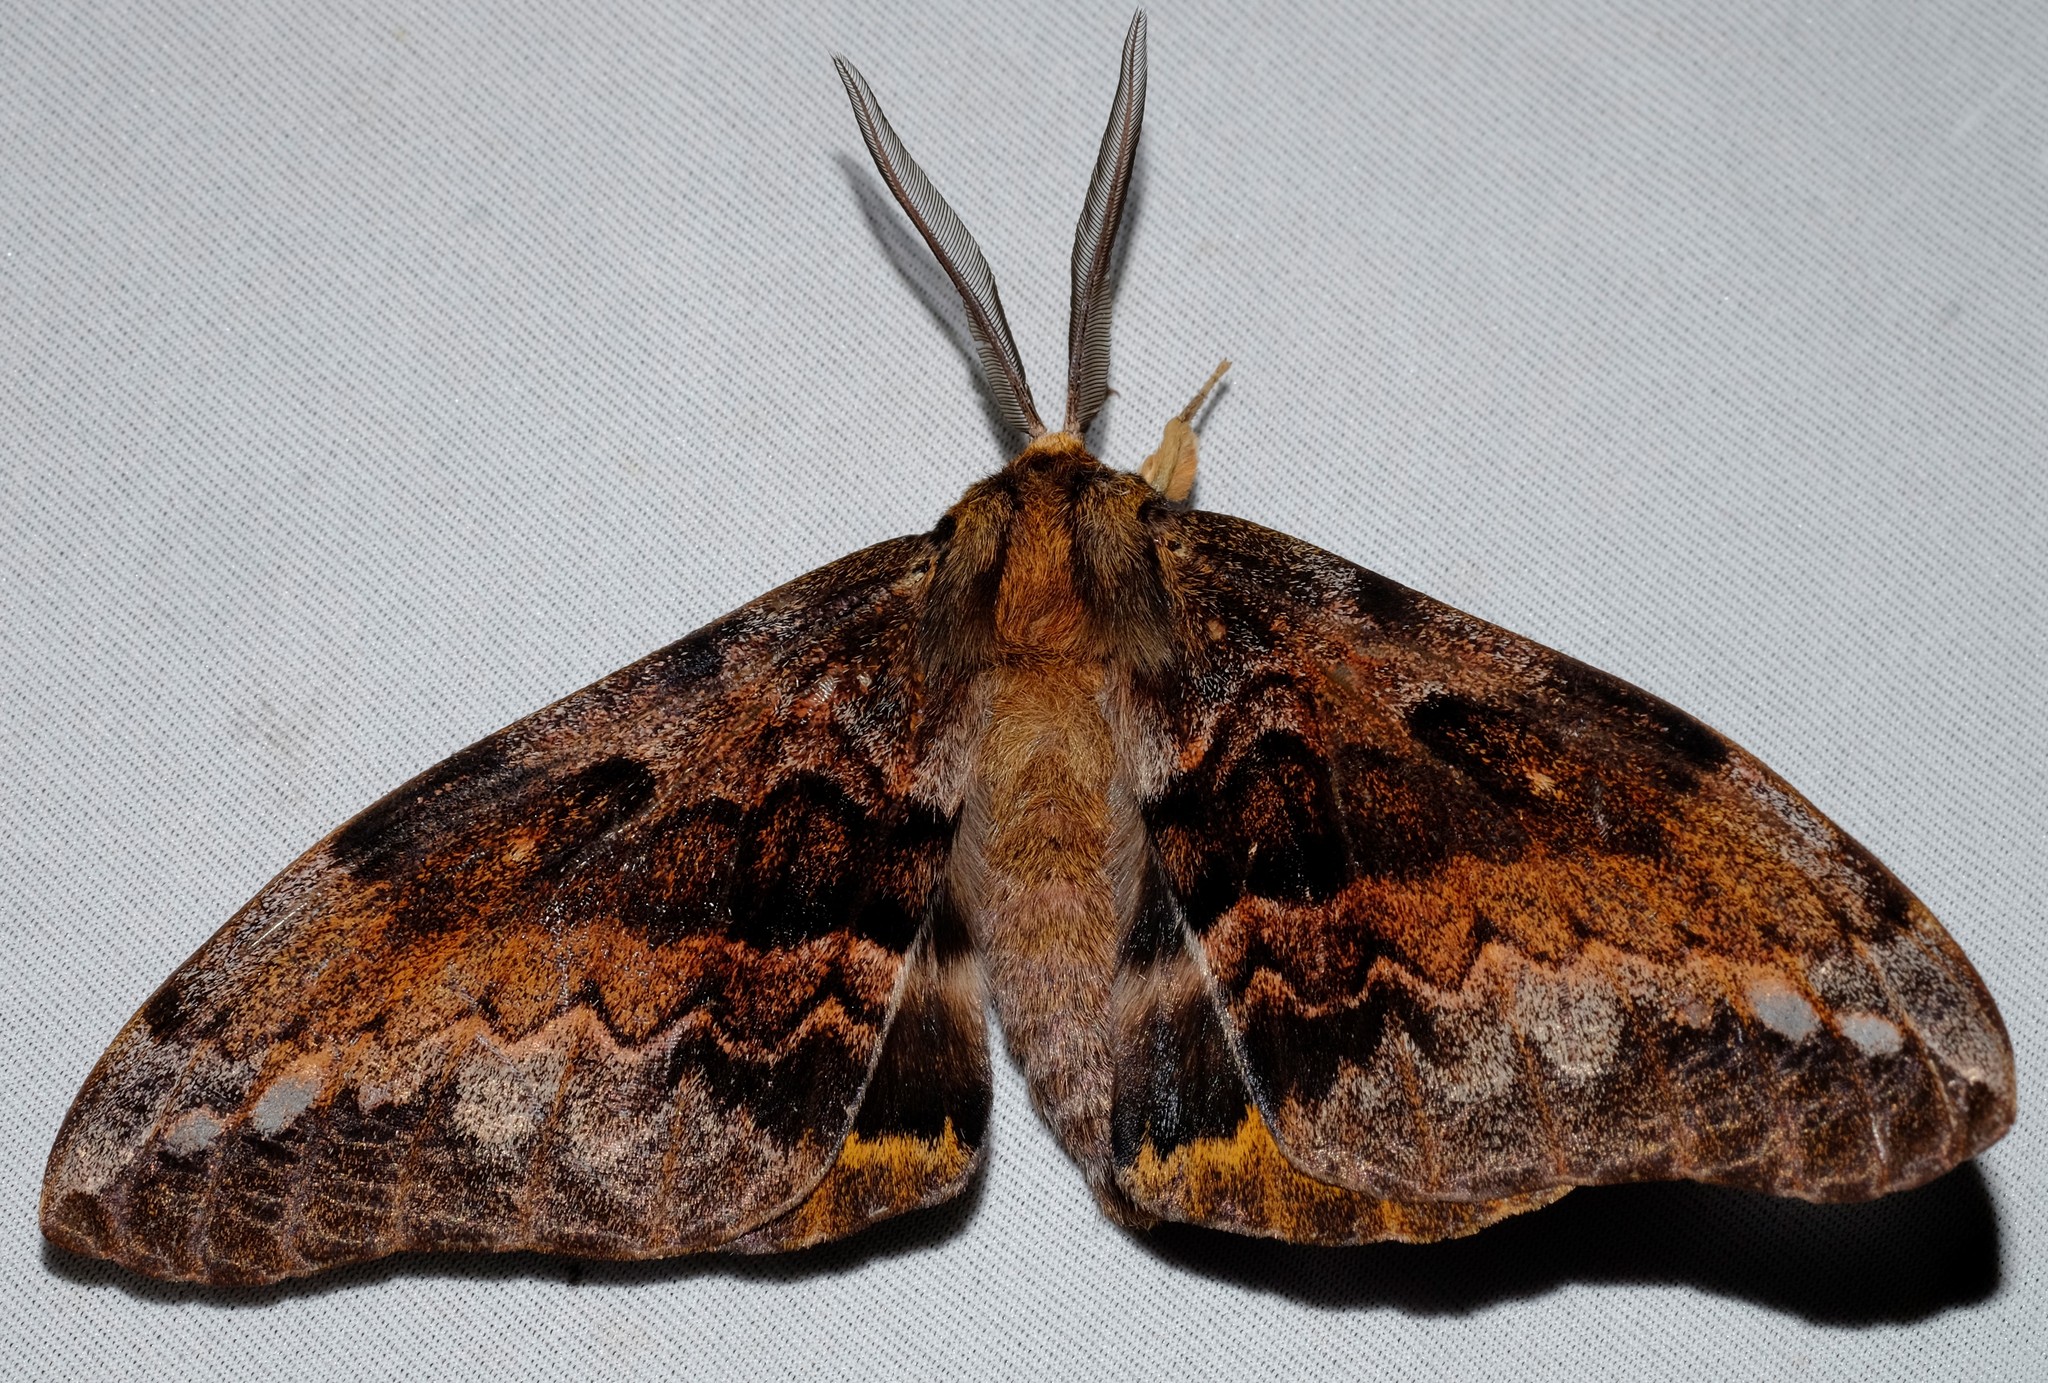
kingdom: Animalia
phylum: Arthropoda
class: Insecta
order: Lepidoptera
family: Anthelidae
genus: Chelepteryx
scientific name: Chelepteryx collesi
